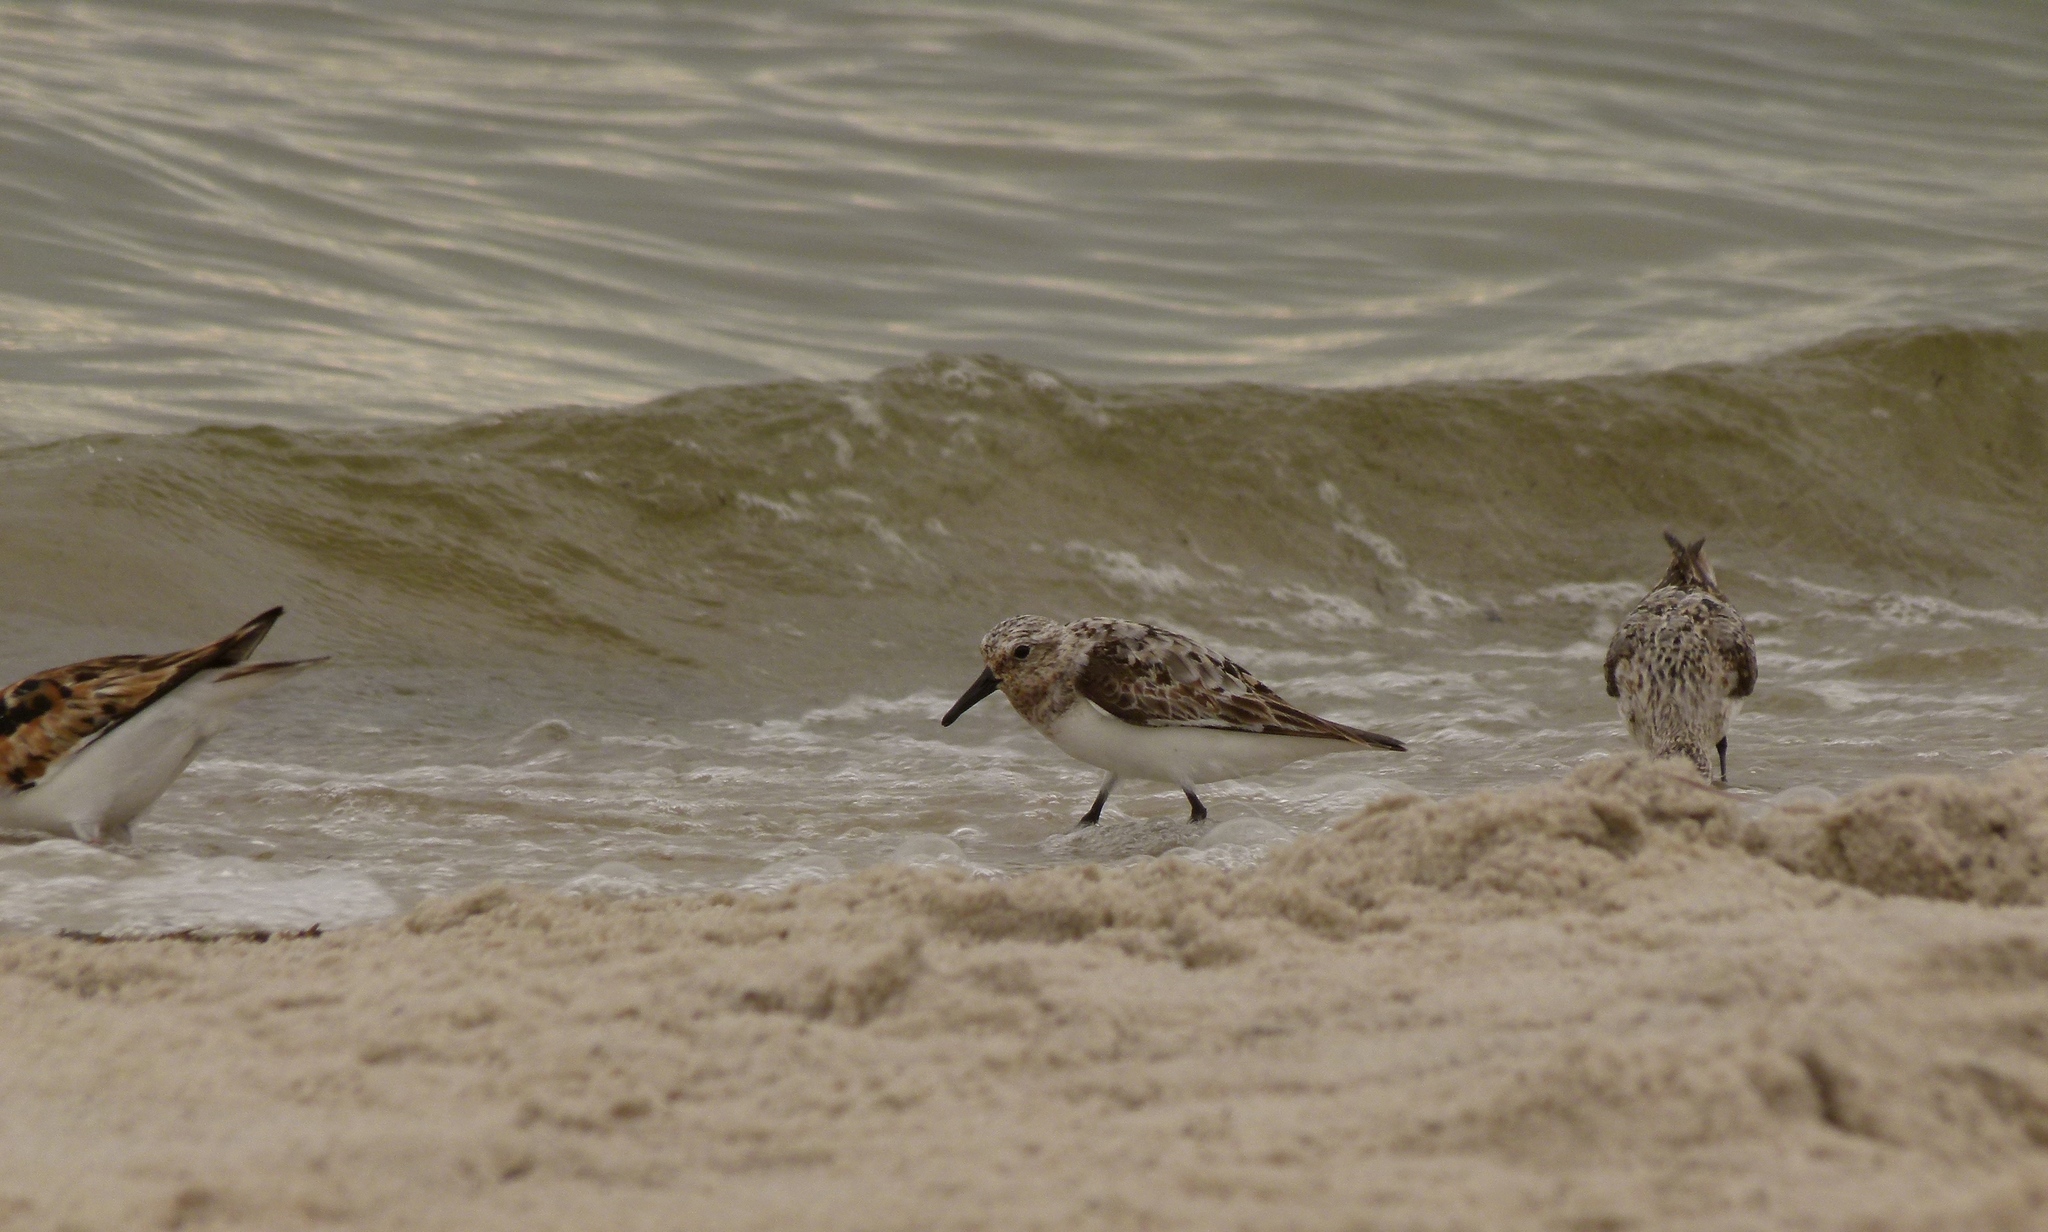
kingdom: Animalia
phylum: Chordata
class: Aves
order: Charadriiformes
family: Scolopacidae
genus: Calidris
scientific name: Calidris alba
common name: Sanderling
